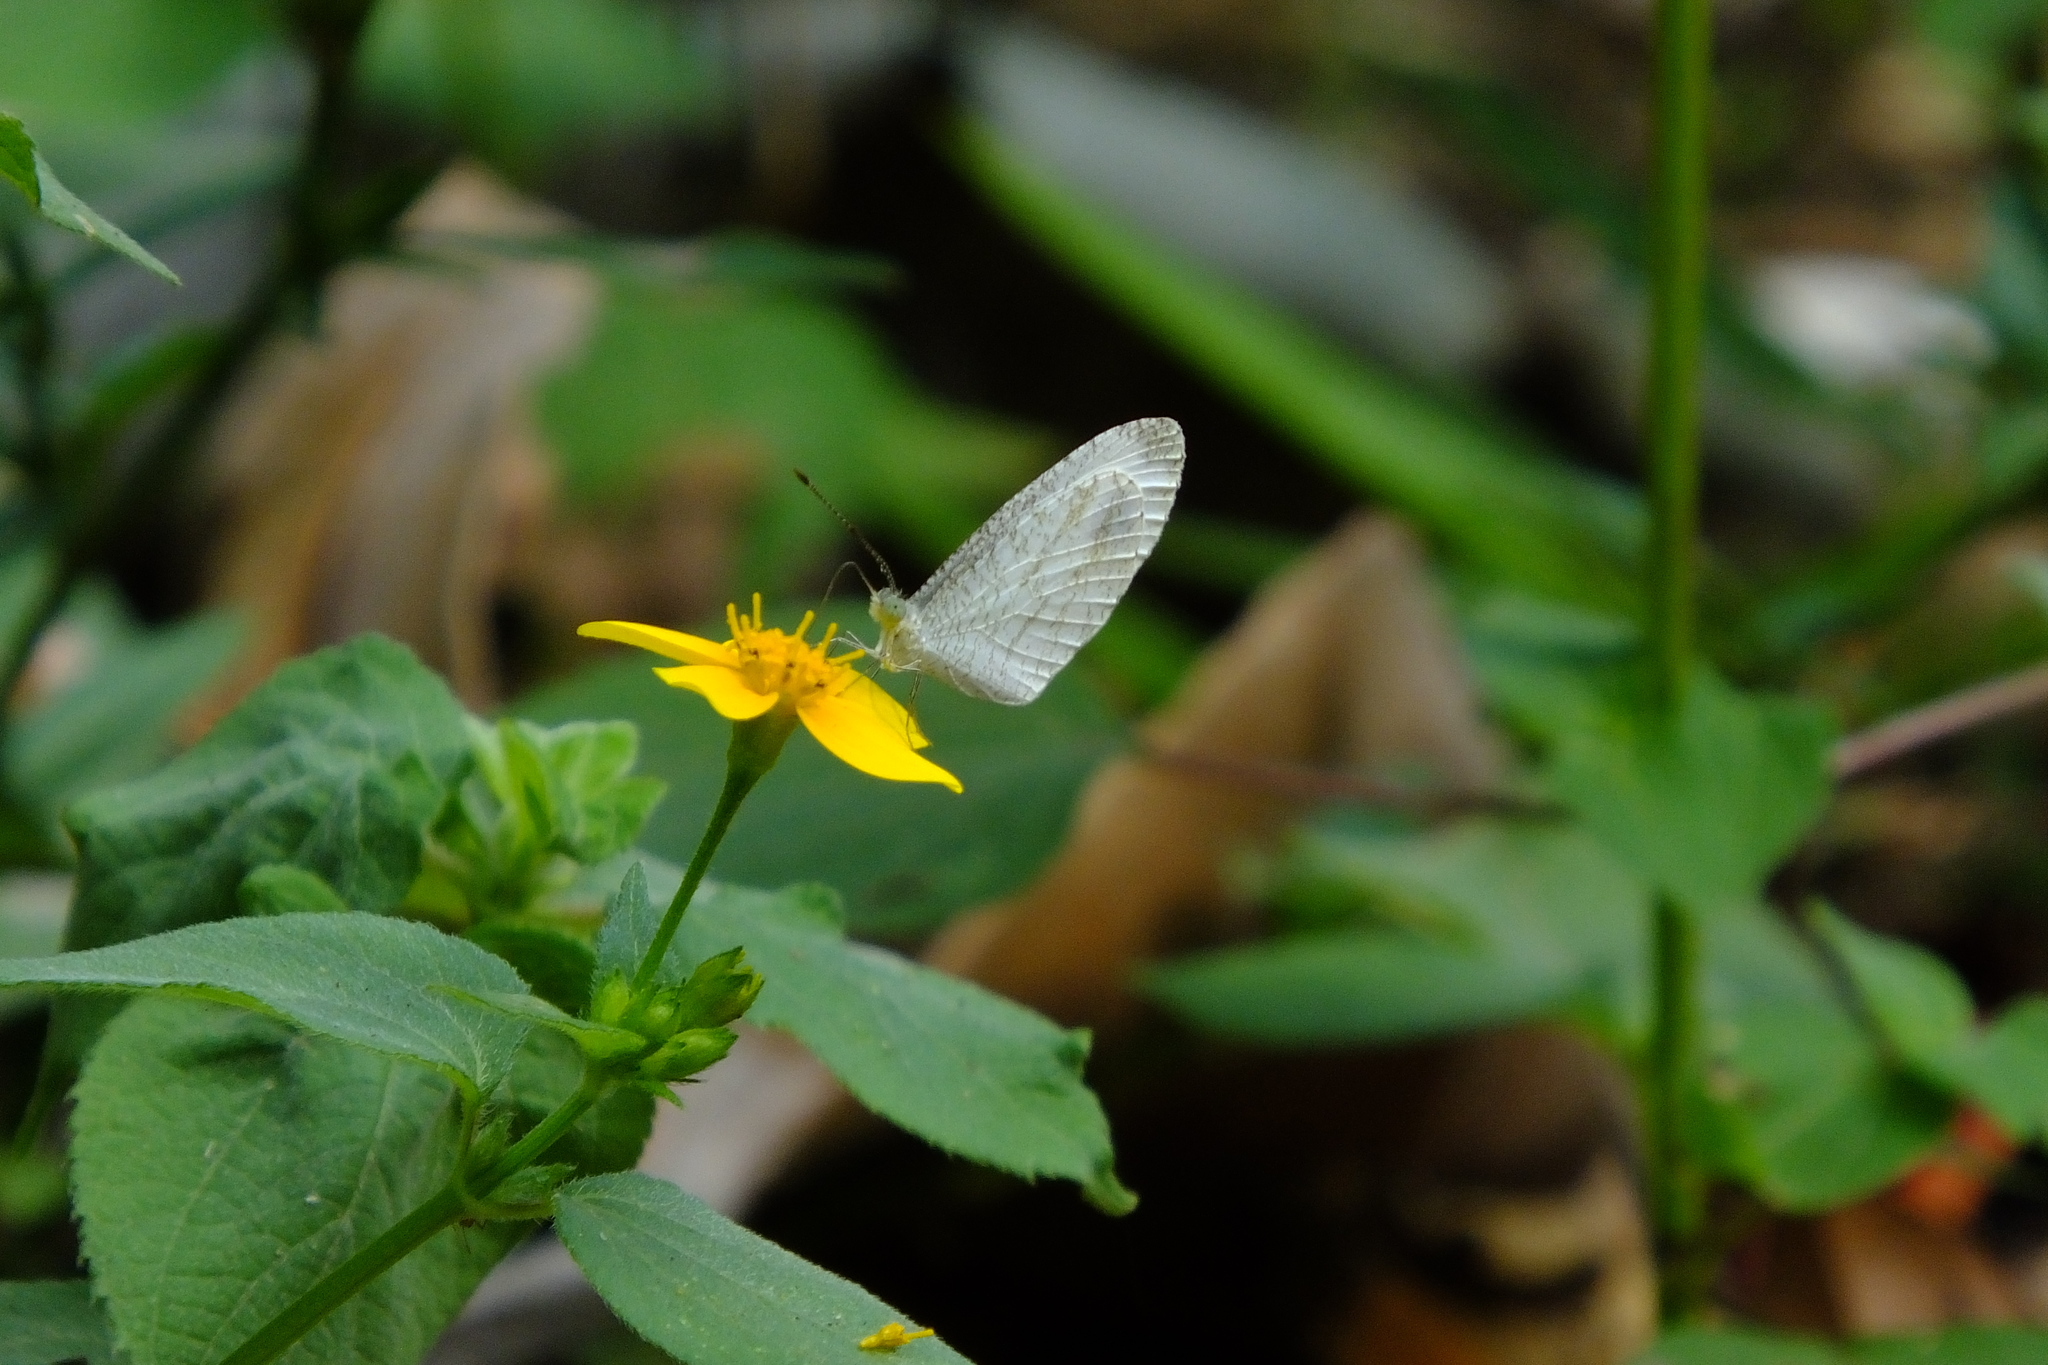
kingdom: Animalia
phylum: Arthropoda
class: Insecta
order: Lepidoptera
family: Pieridae
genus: Leptosia
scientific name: Leptosia nina
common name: Psyche
